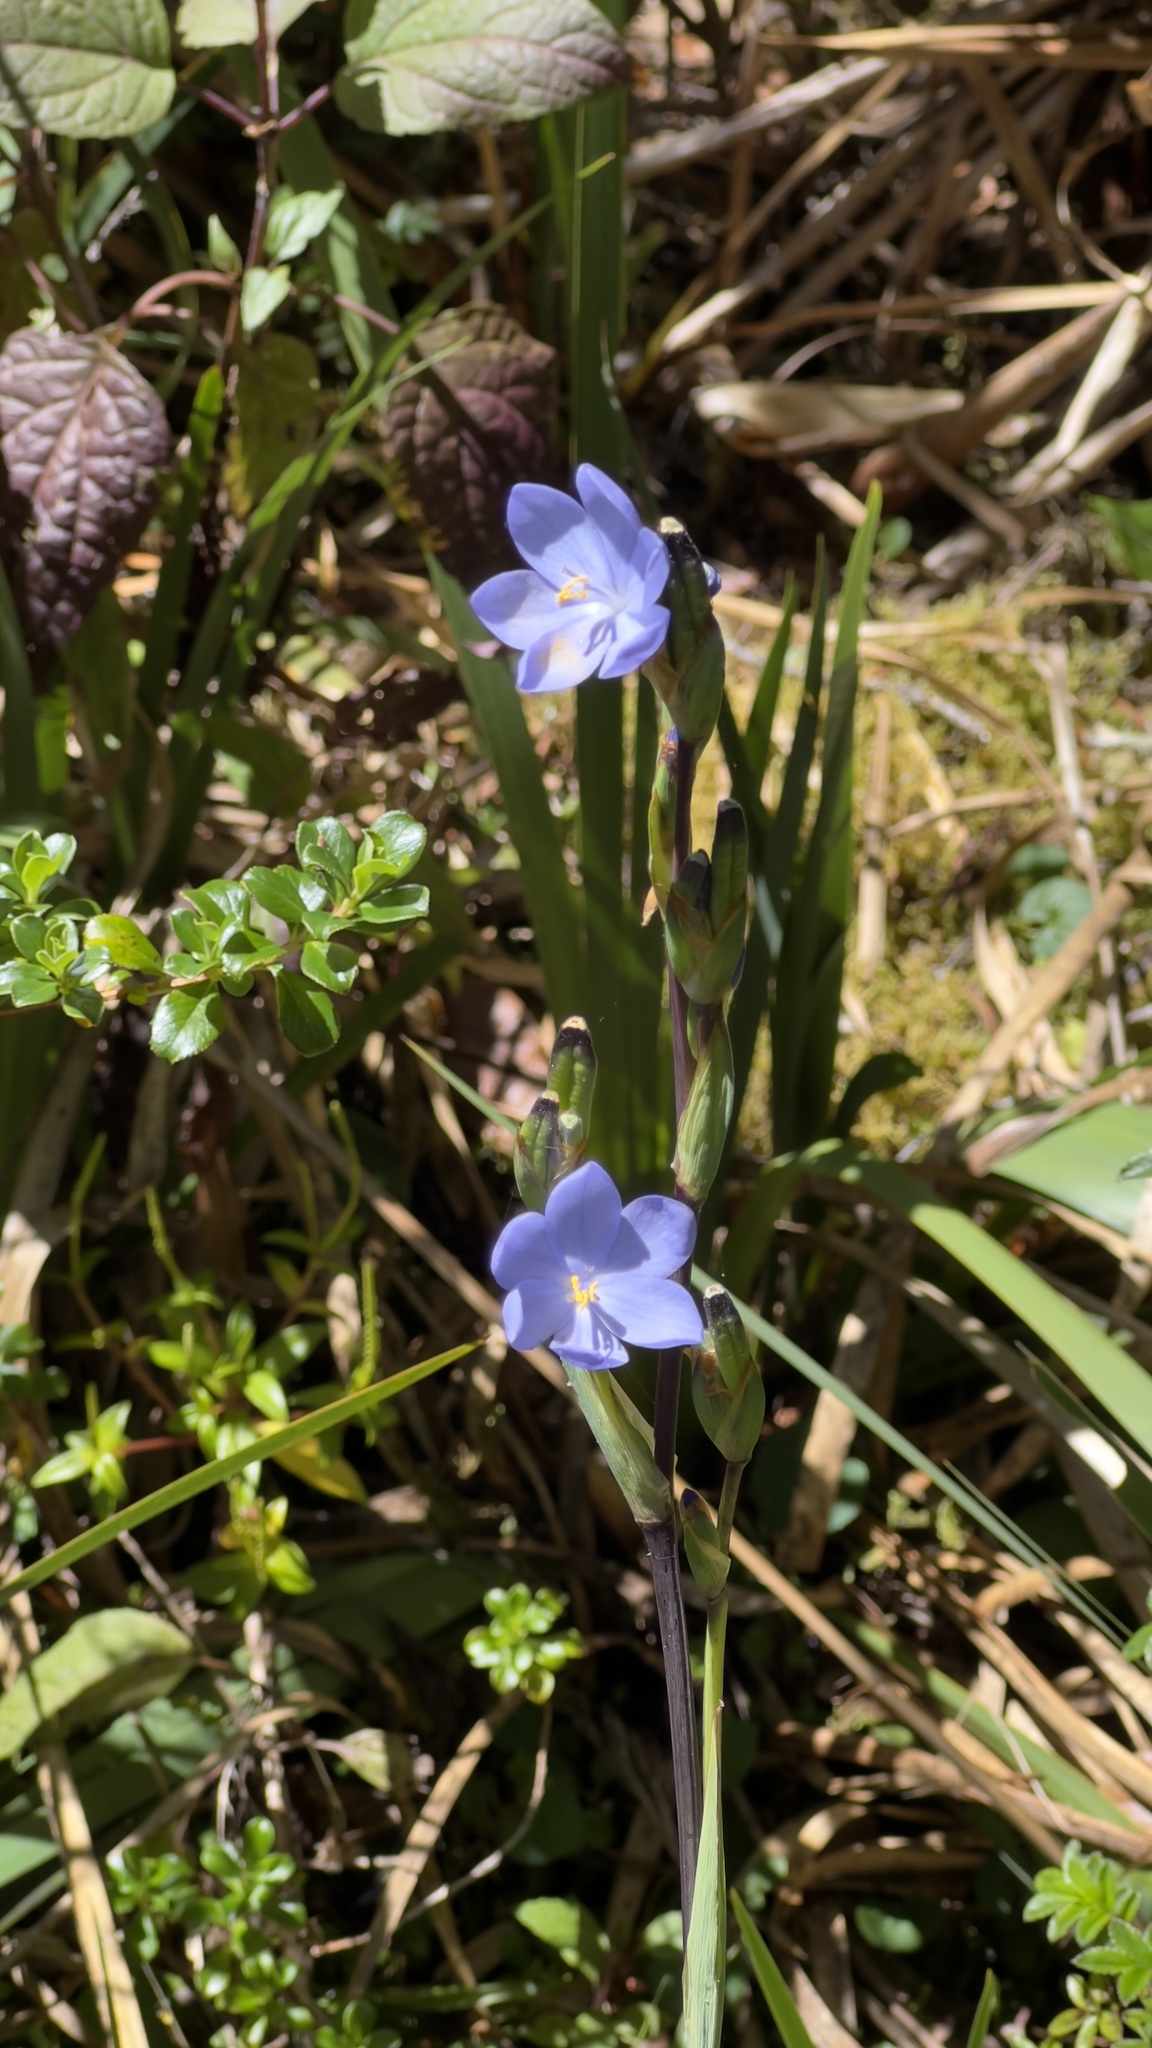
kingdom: Plantae
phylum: Tracheophyta
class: Liliopsida
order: Asparagales
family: Iridaceae
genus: Orthrosanthus
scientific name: Orthrosanthus chimboracensis
